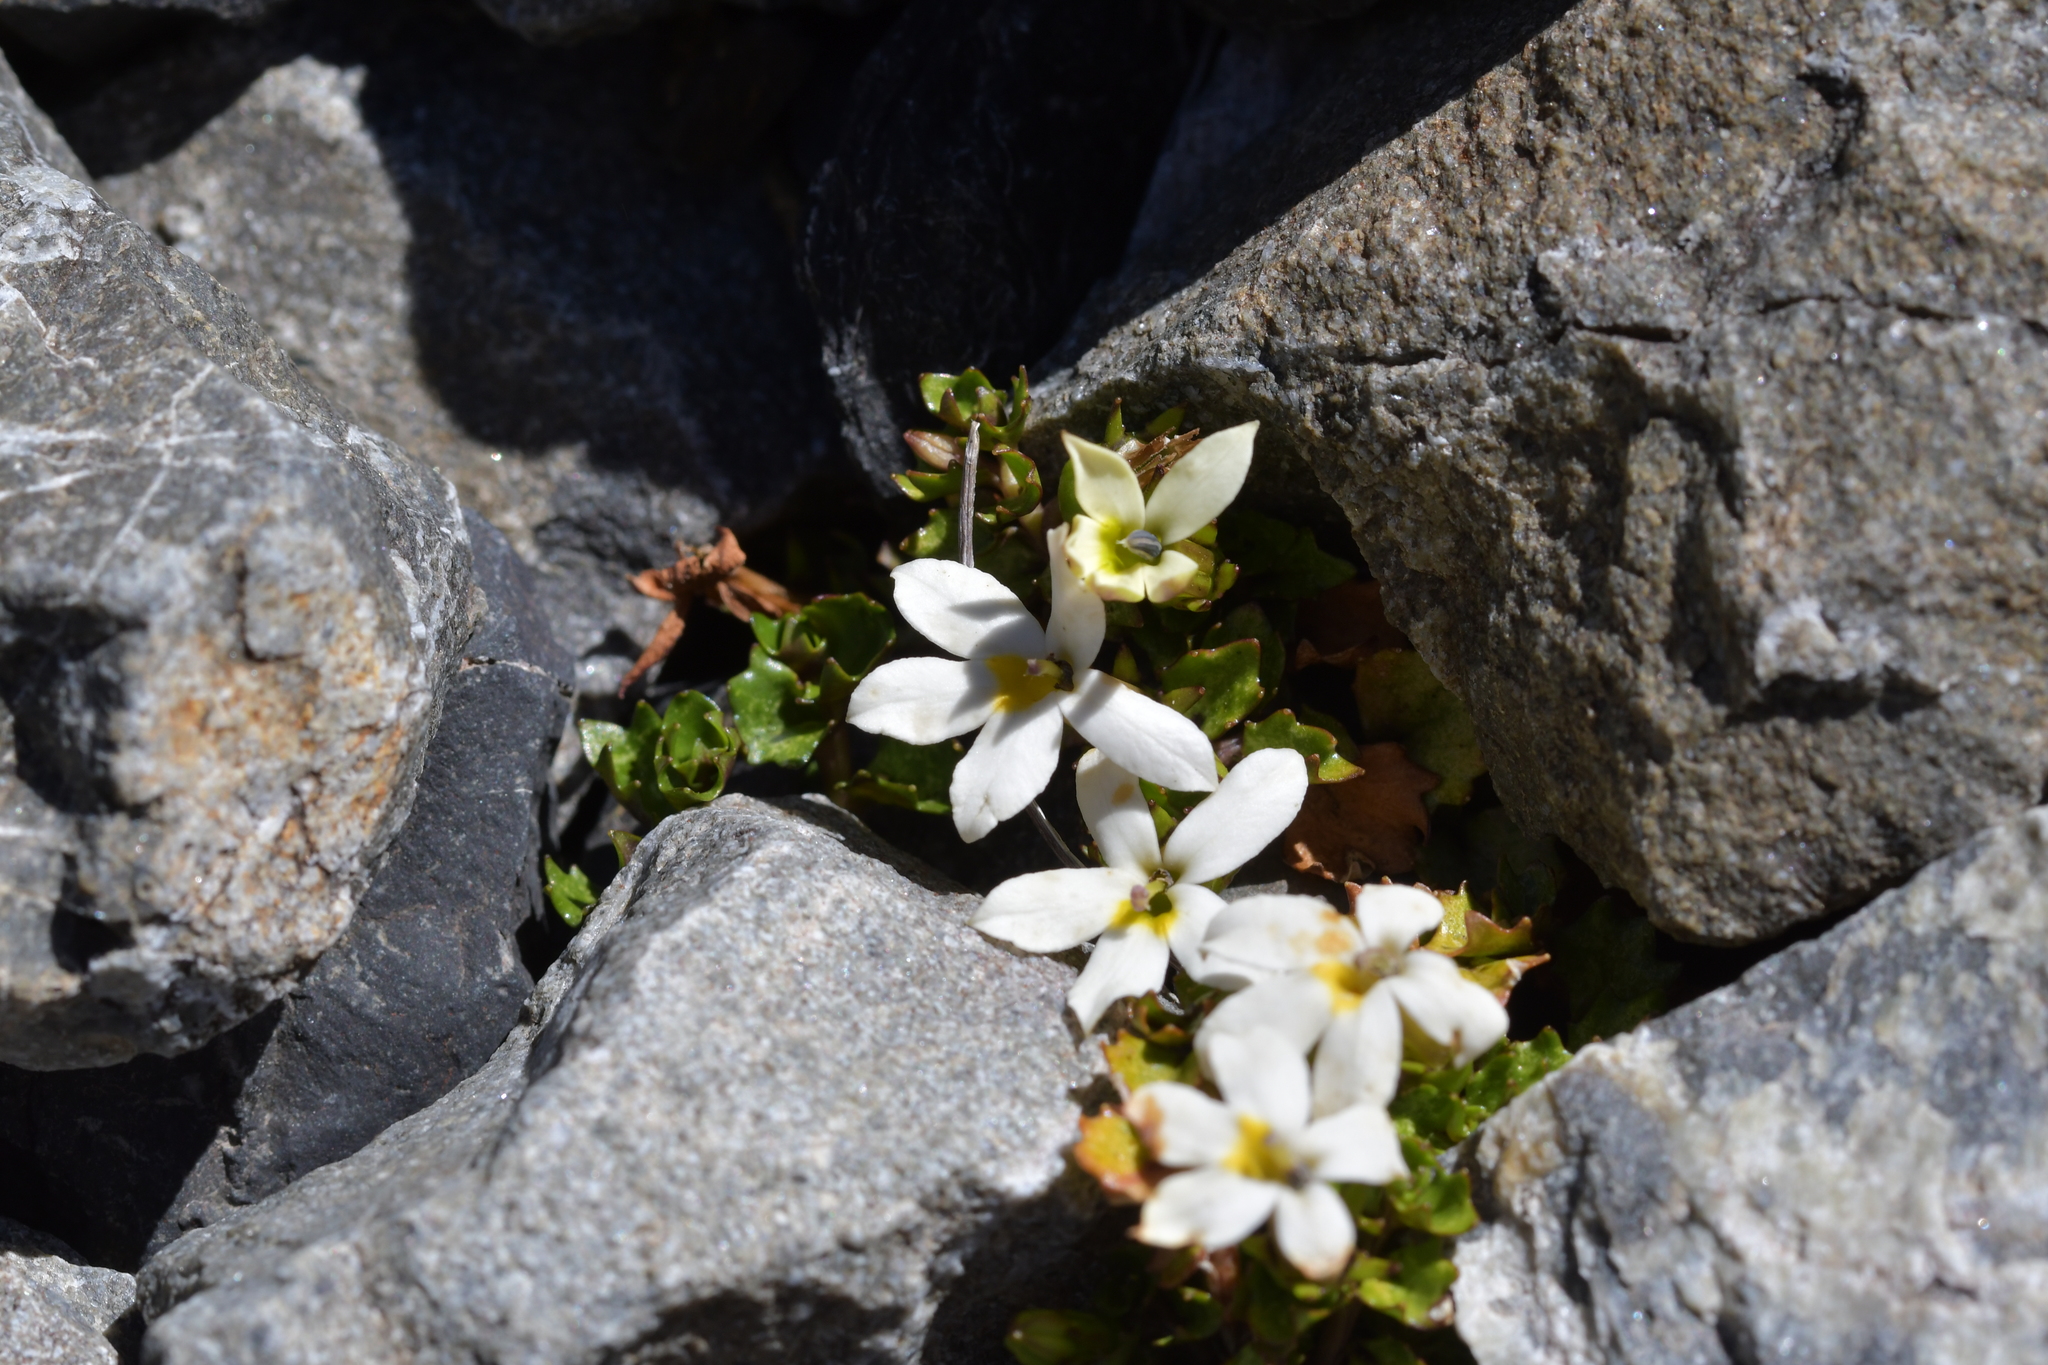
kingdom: Plantae
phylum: Tracheophyta
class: Magnoliopsida
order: Asterales
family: Campanulaceae
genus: Lobelia
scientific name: Lobelia macrodon
